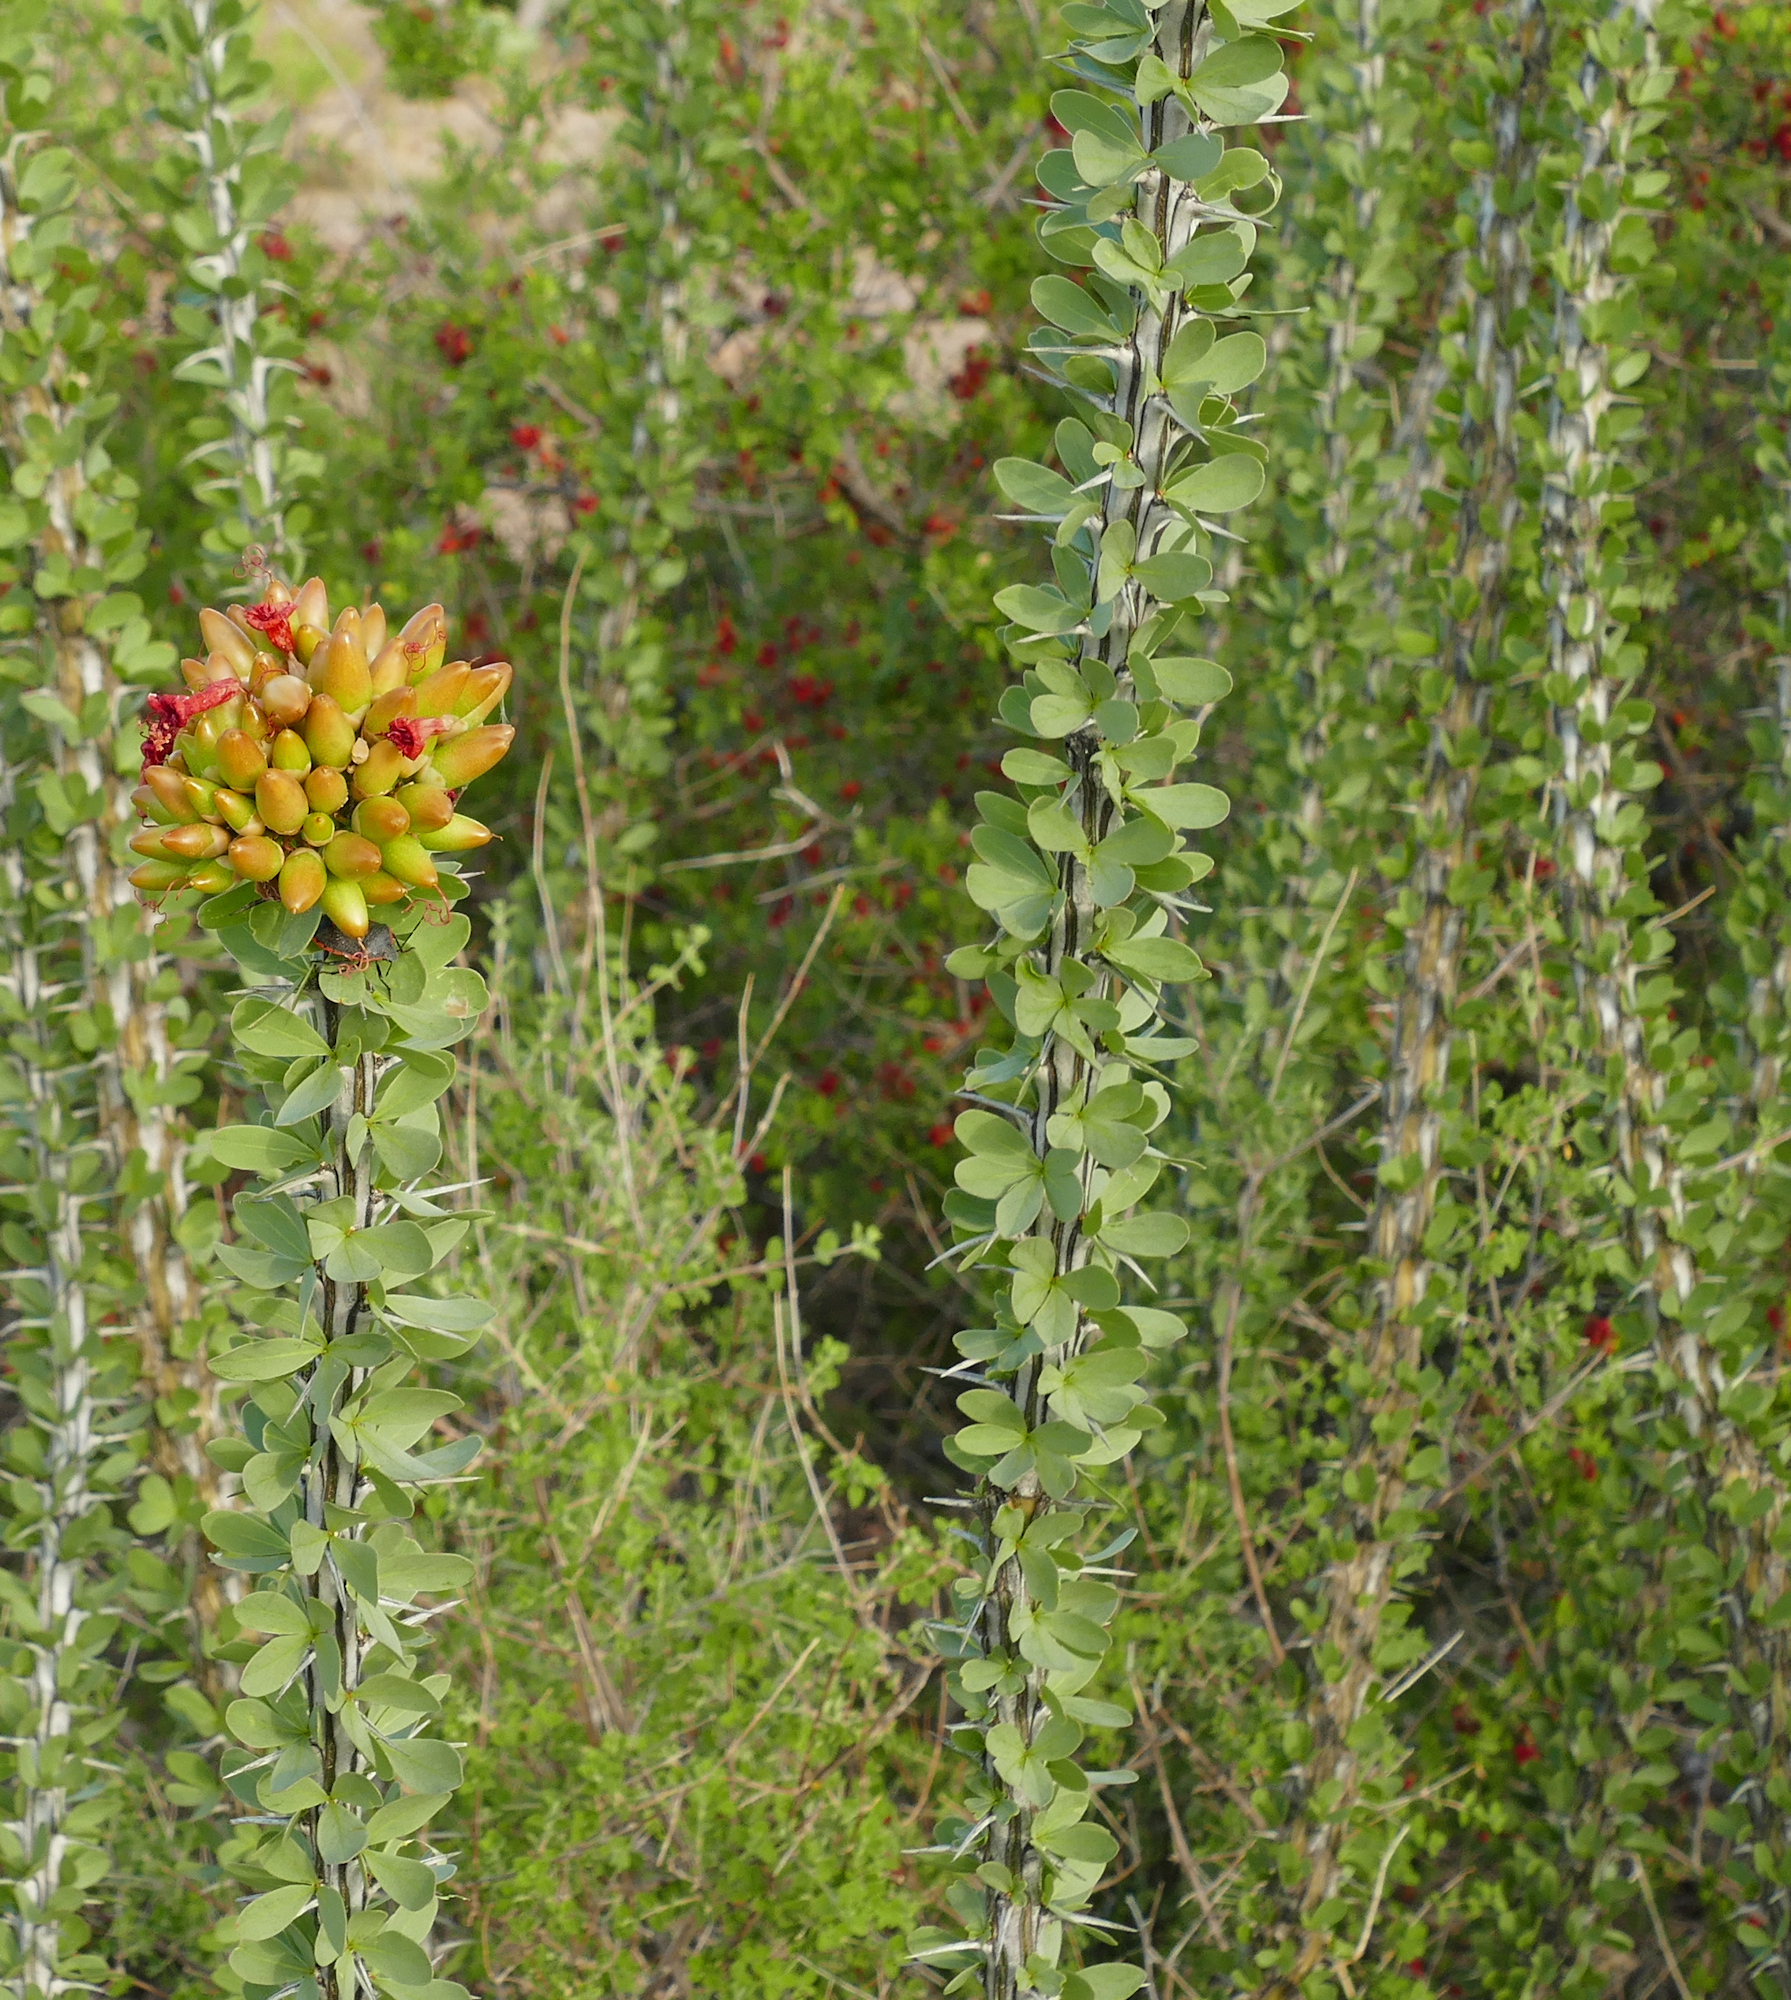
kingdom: Plantae
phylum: Tracheophyta
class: Magnoliopsida
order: Ericales
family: Fouquieriaceae
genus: Fouquieria
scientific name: Fouquieria splendens
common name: Vine-cactus
